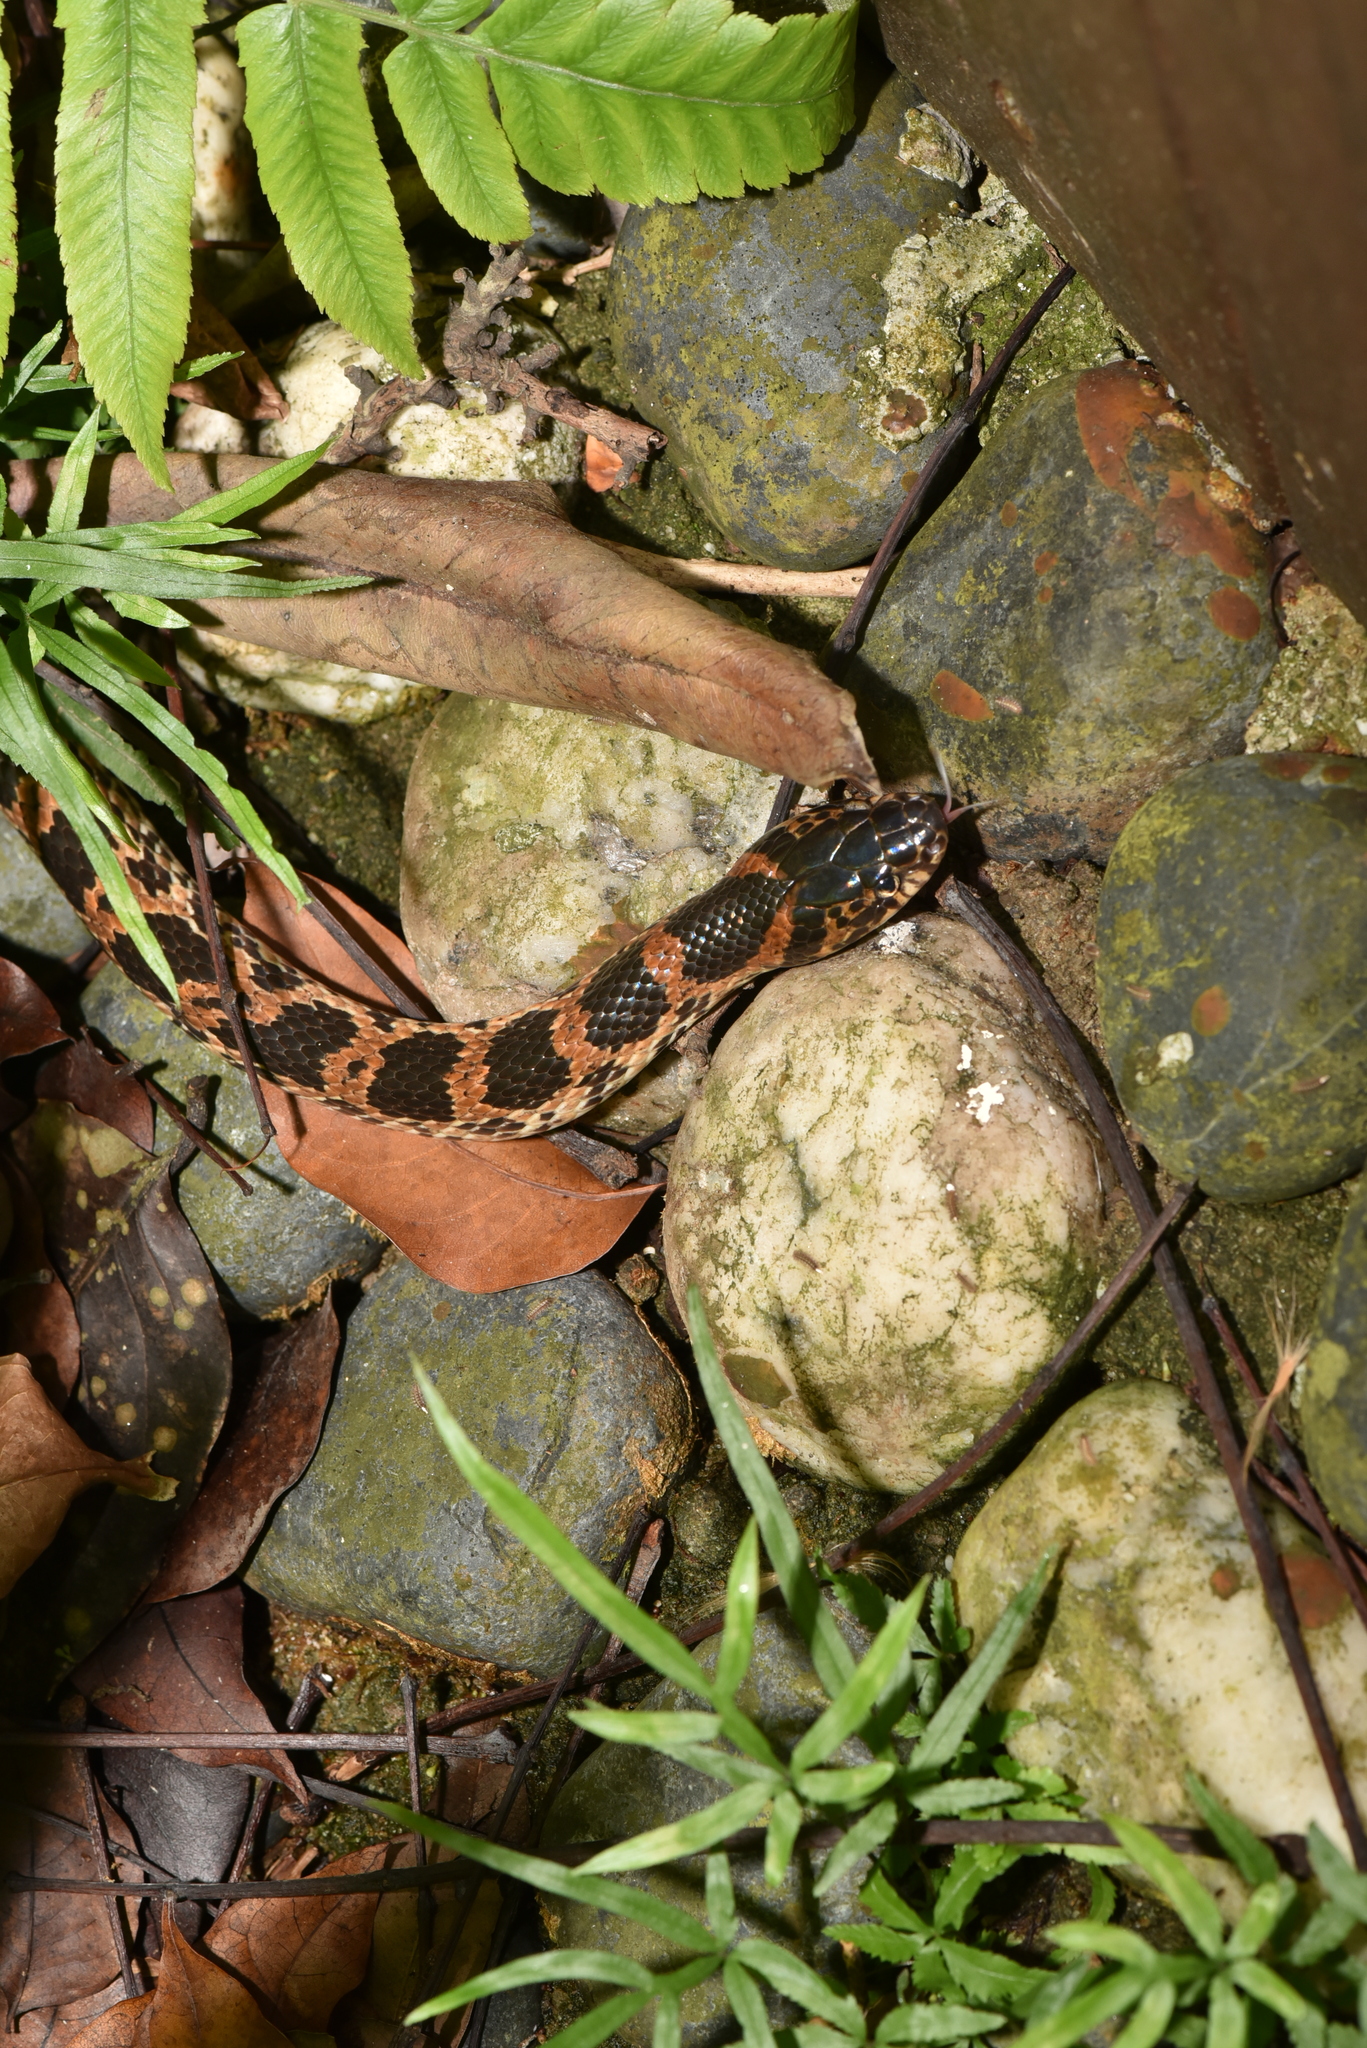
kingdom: Animalia
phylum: Chordata
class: Squamata
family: Colubridae
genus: Lycodon
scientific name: Lycodon rufozonatus
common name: Red-banded snake
